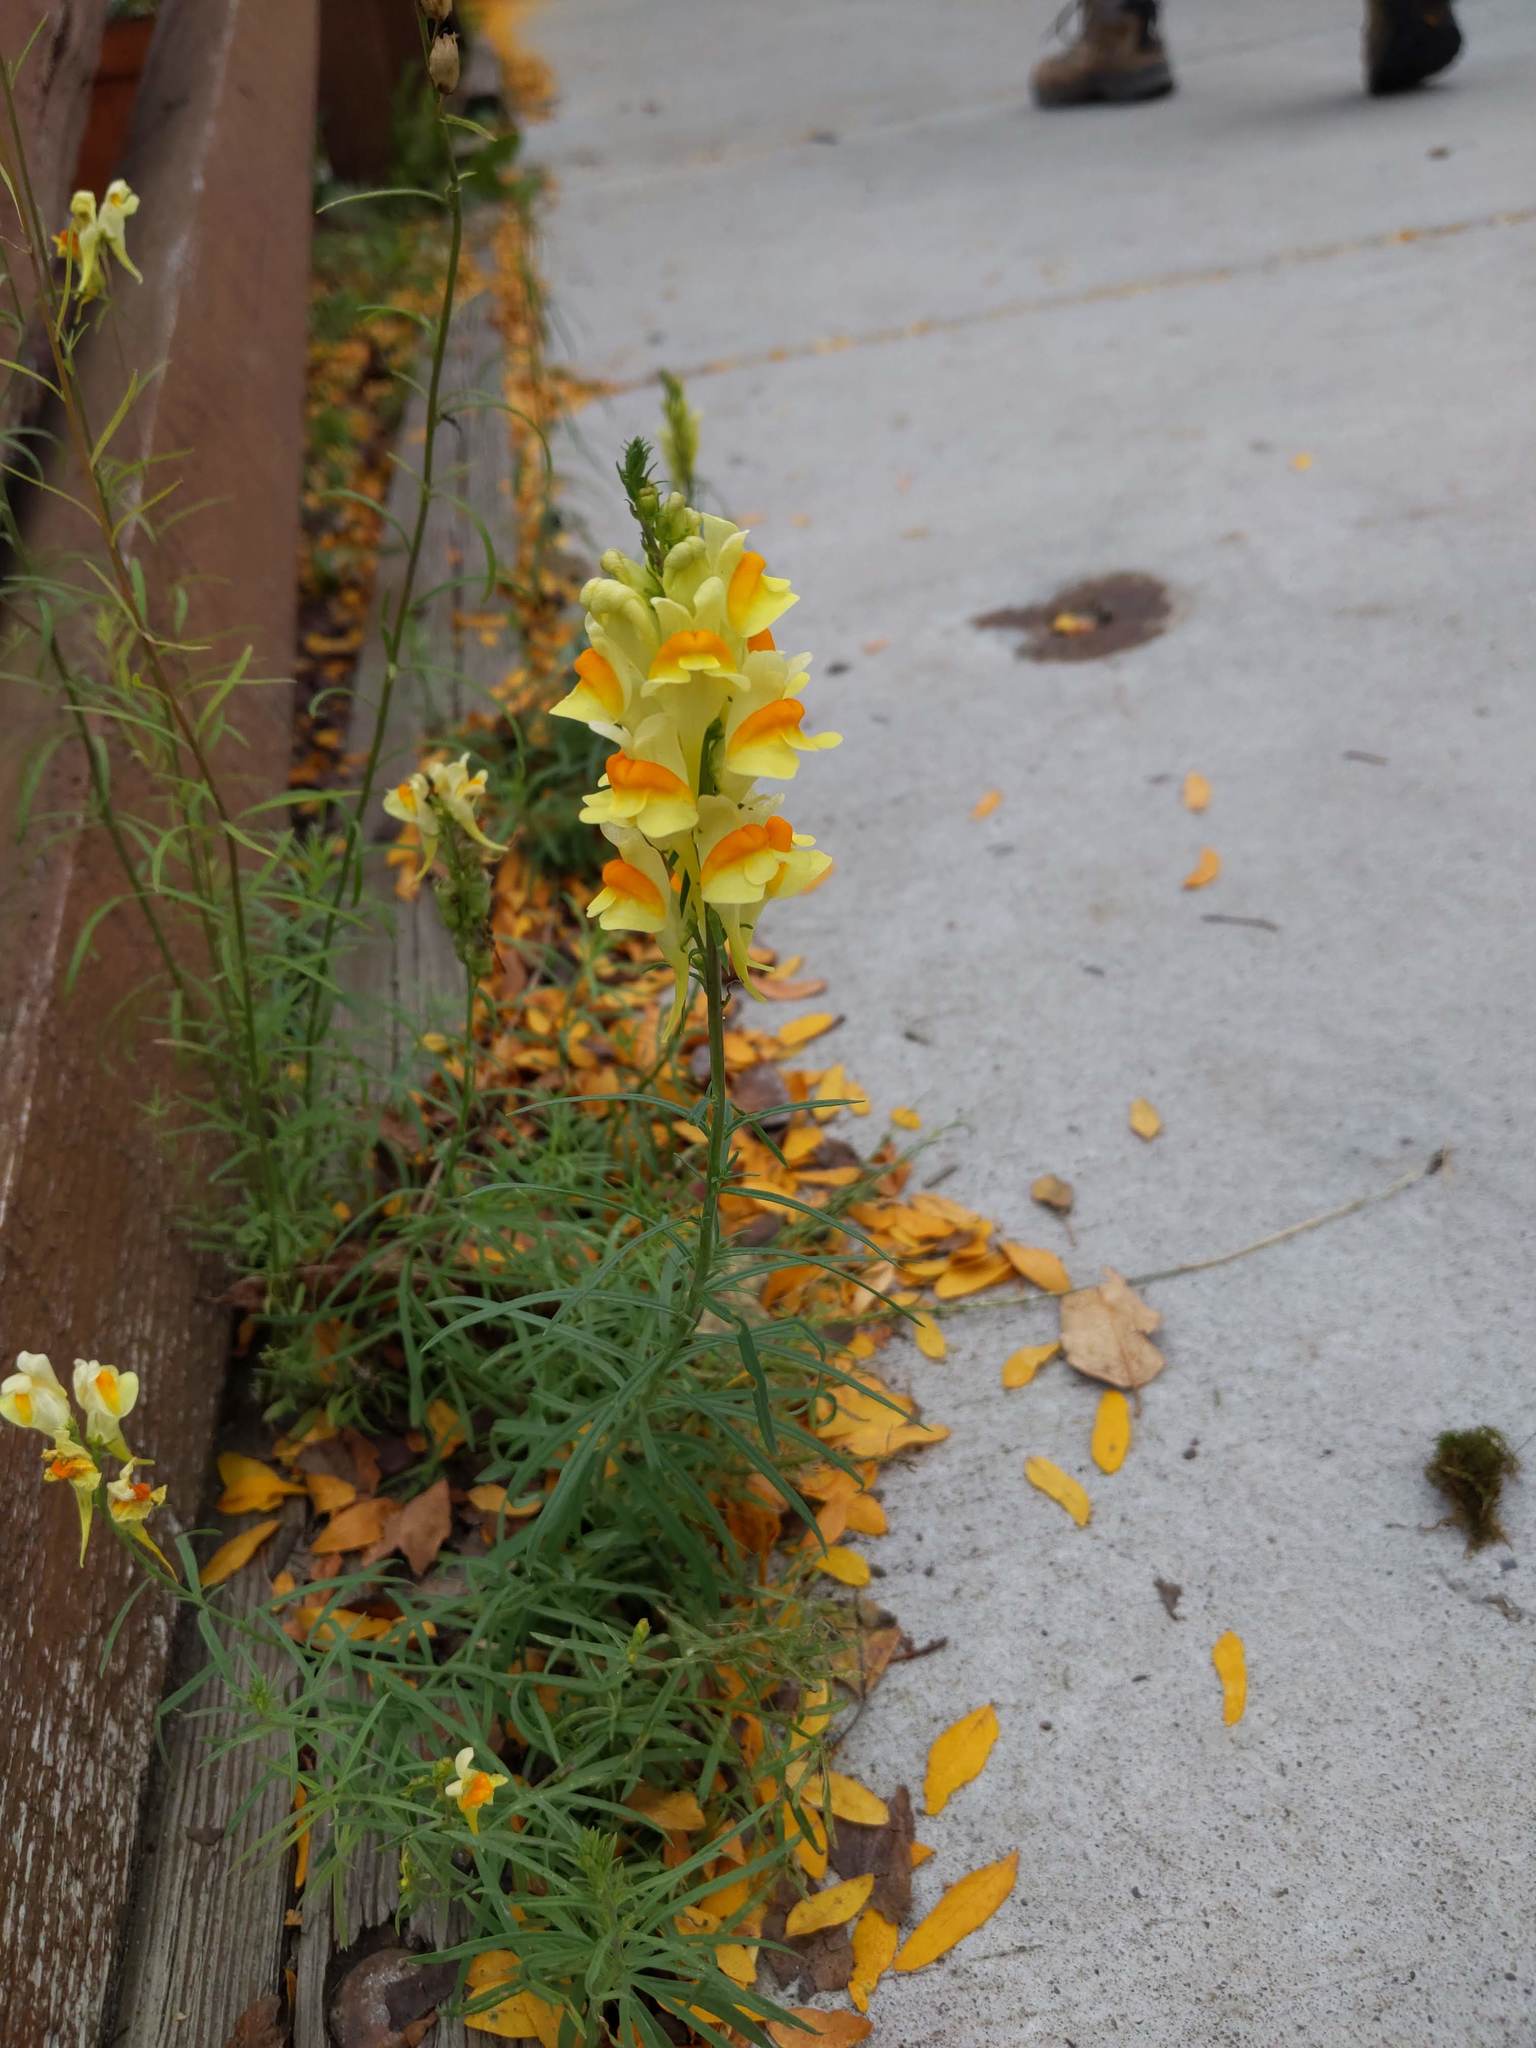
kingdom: Plantae
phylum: Tracheophyta
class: Magnoliopsida
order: Lamiales
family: Plantaginaceae
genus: Linaria
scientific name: Linaria vulgaris
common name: Butter and eggs
